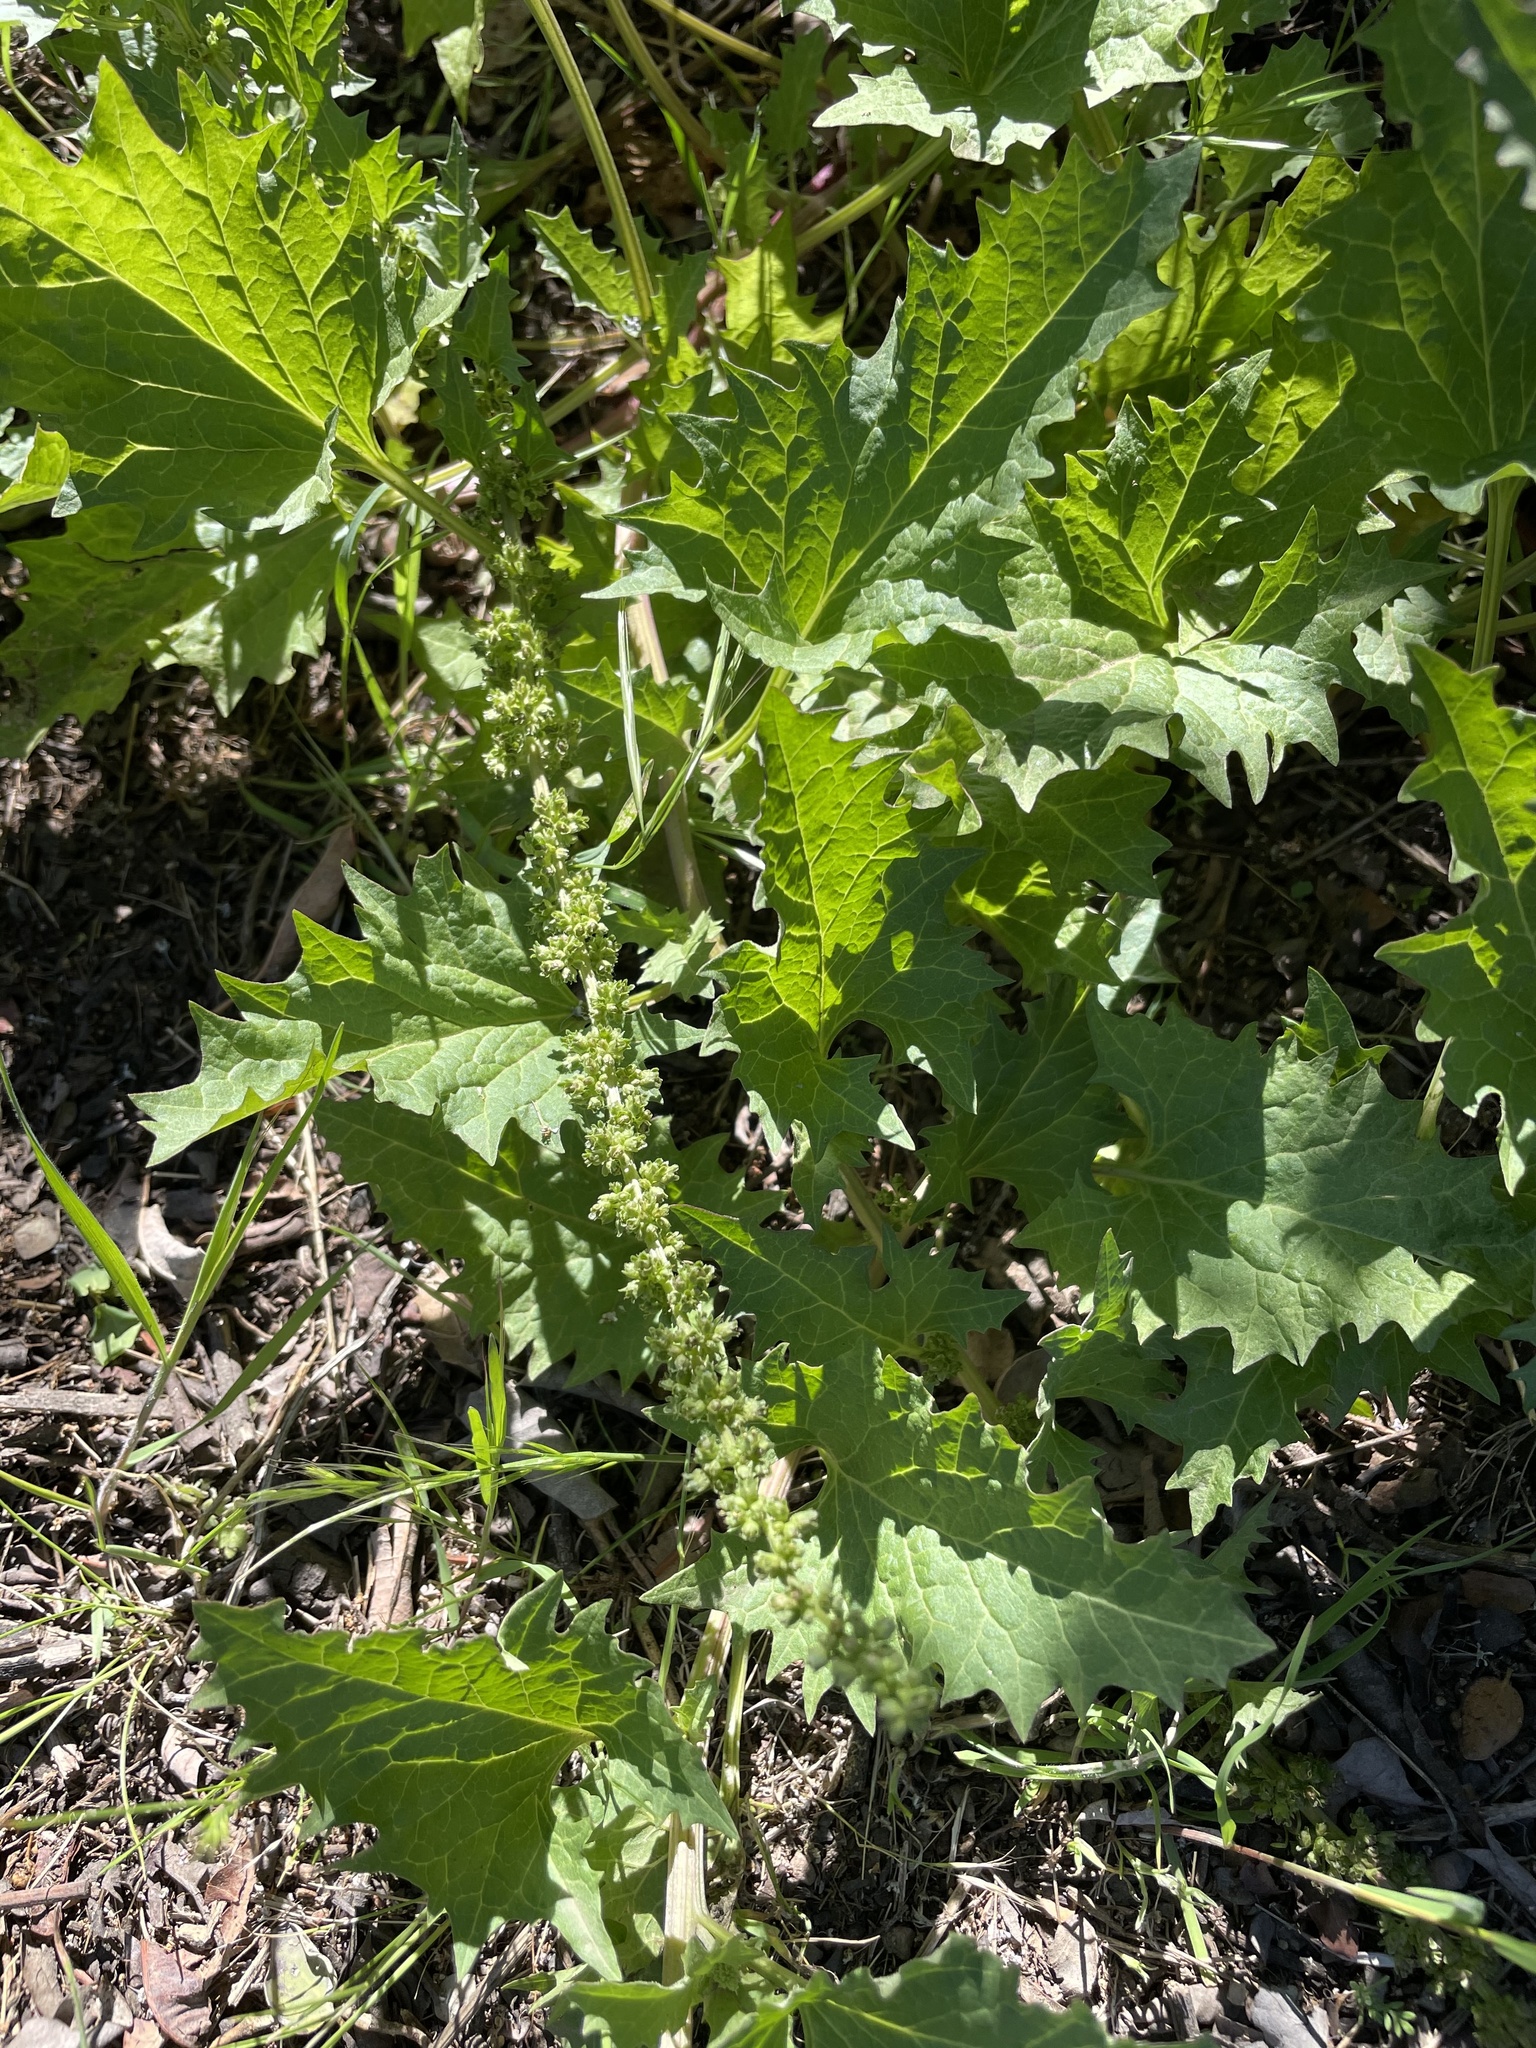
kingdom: Plantae
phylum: Tracheophyta
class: Magnoliopsida
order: Caryophyllales
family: Amaranthaceae
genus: Blitum
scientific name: Blitum californicum
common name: California goosefoot
